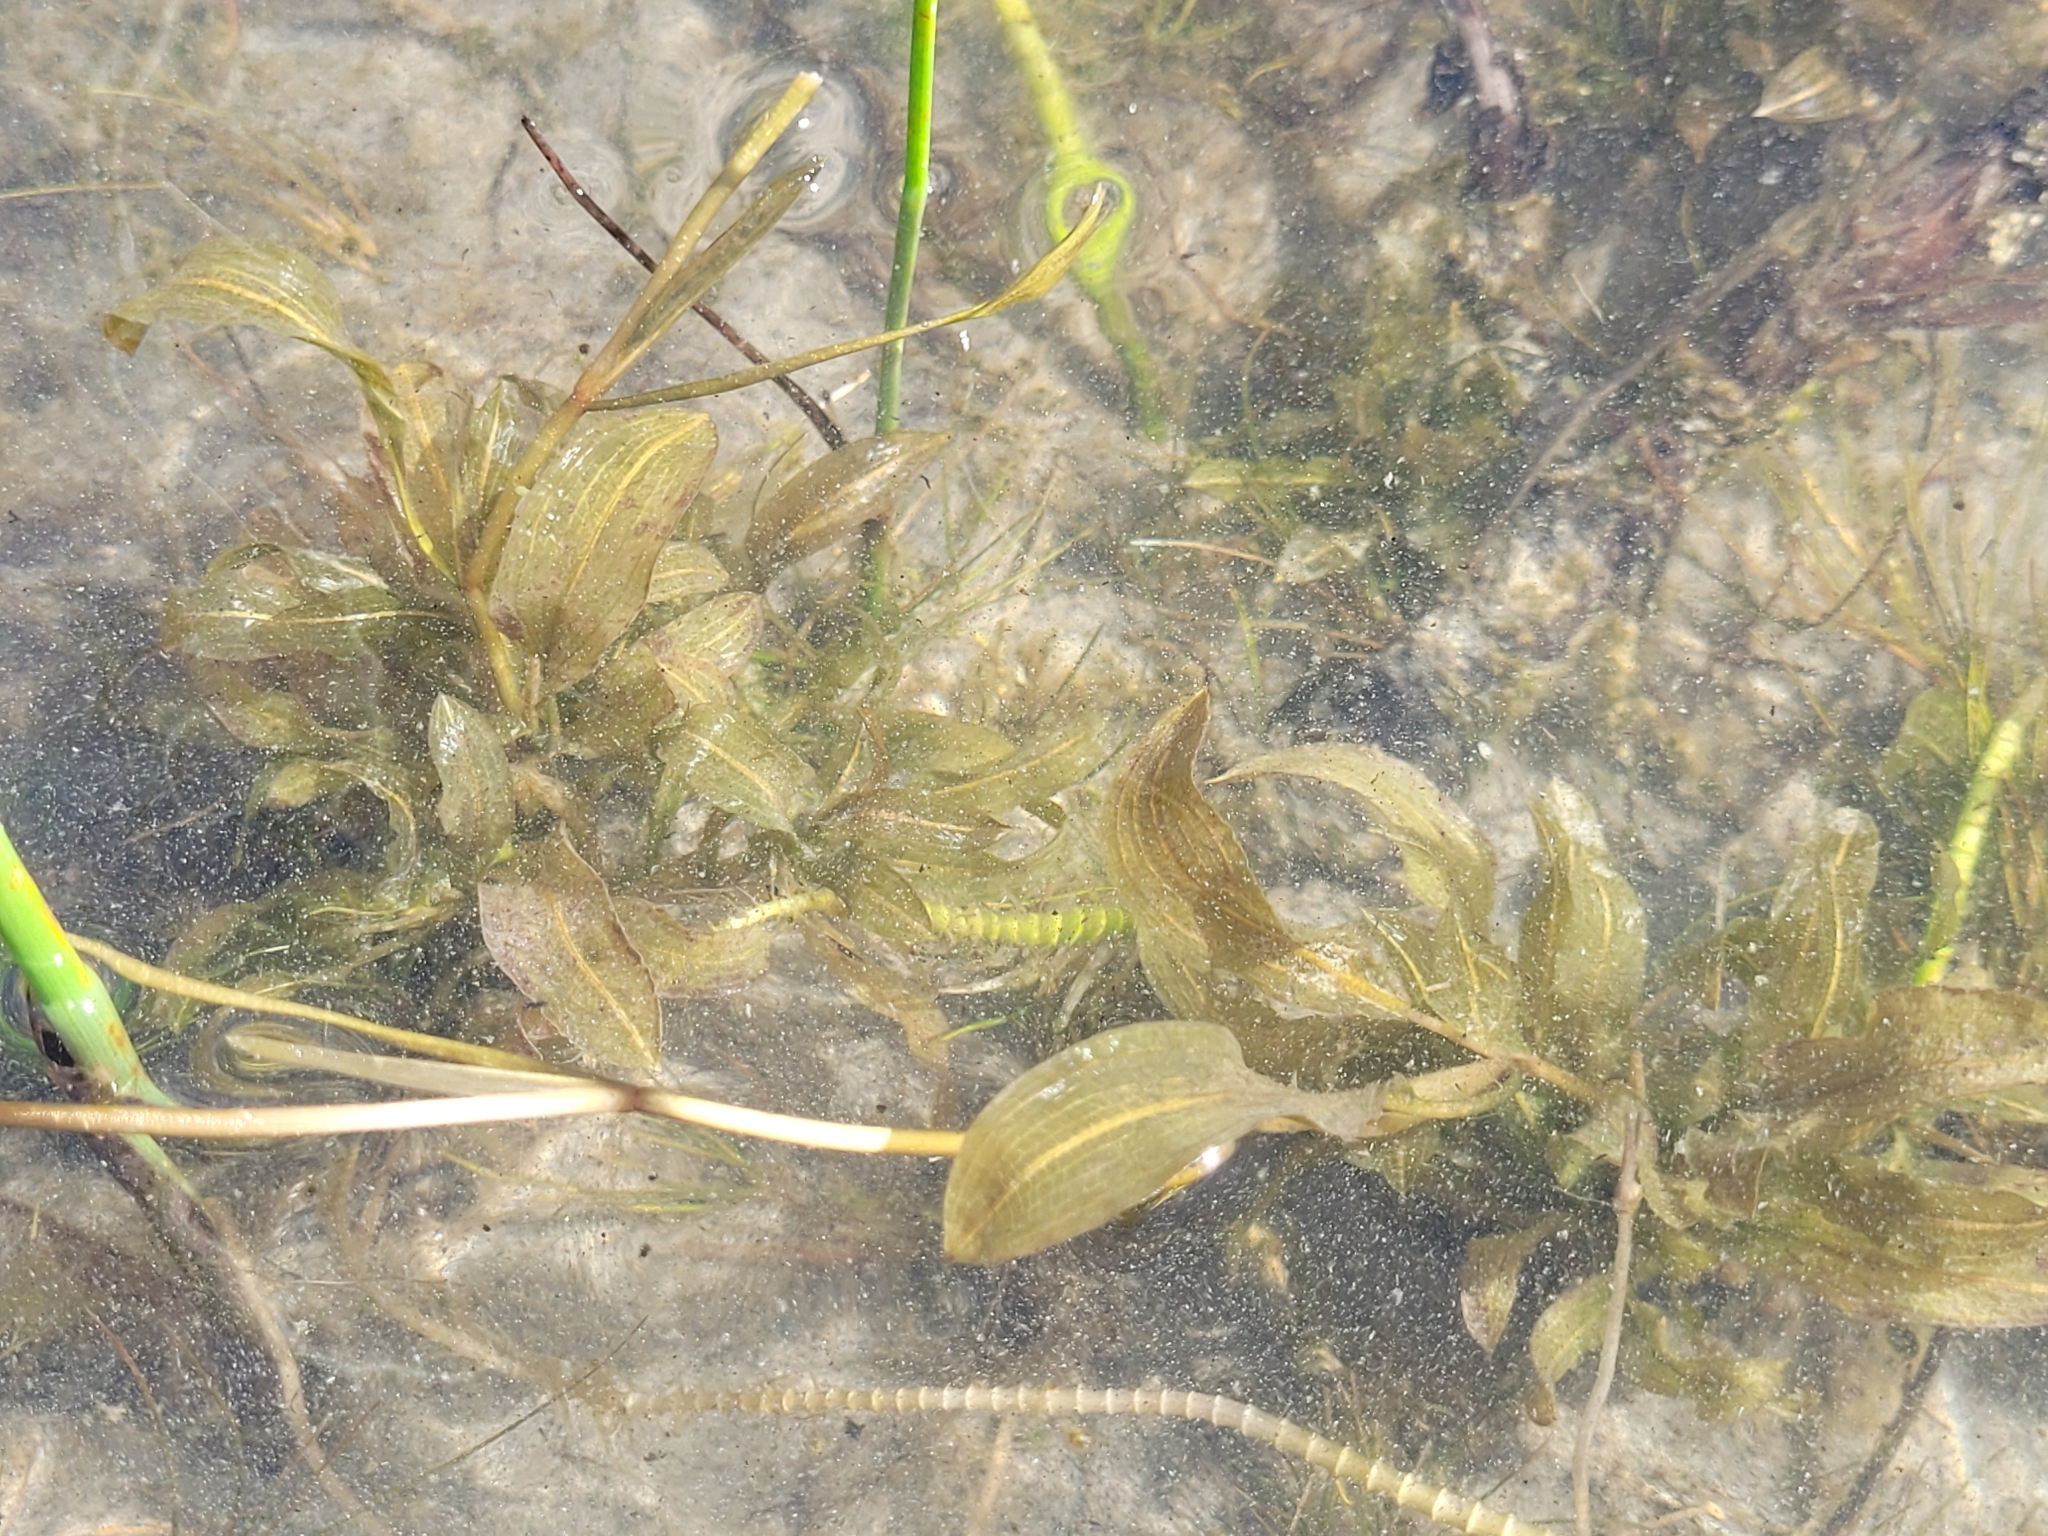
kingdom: Plantae
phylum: Tracheophyta
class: Liliopsida
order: Alismatales
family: Potamogetonaceae
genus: Potamogeton
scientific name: Potamogeton richardsonii
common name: Richardson's pondweed
